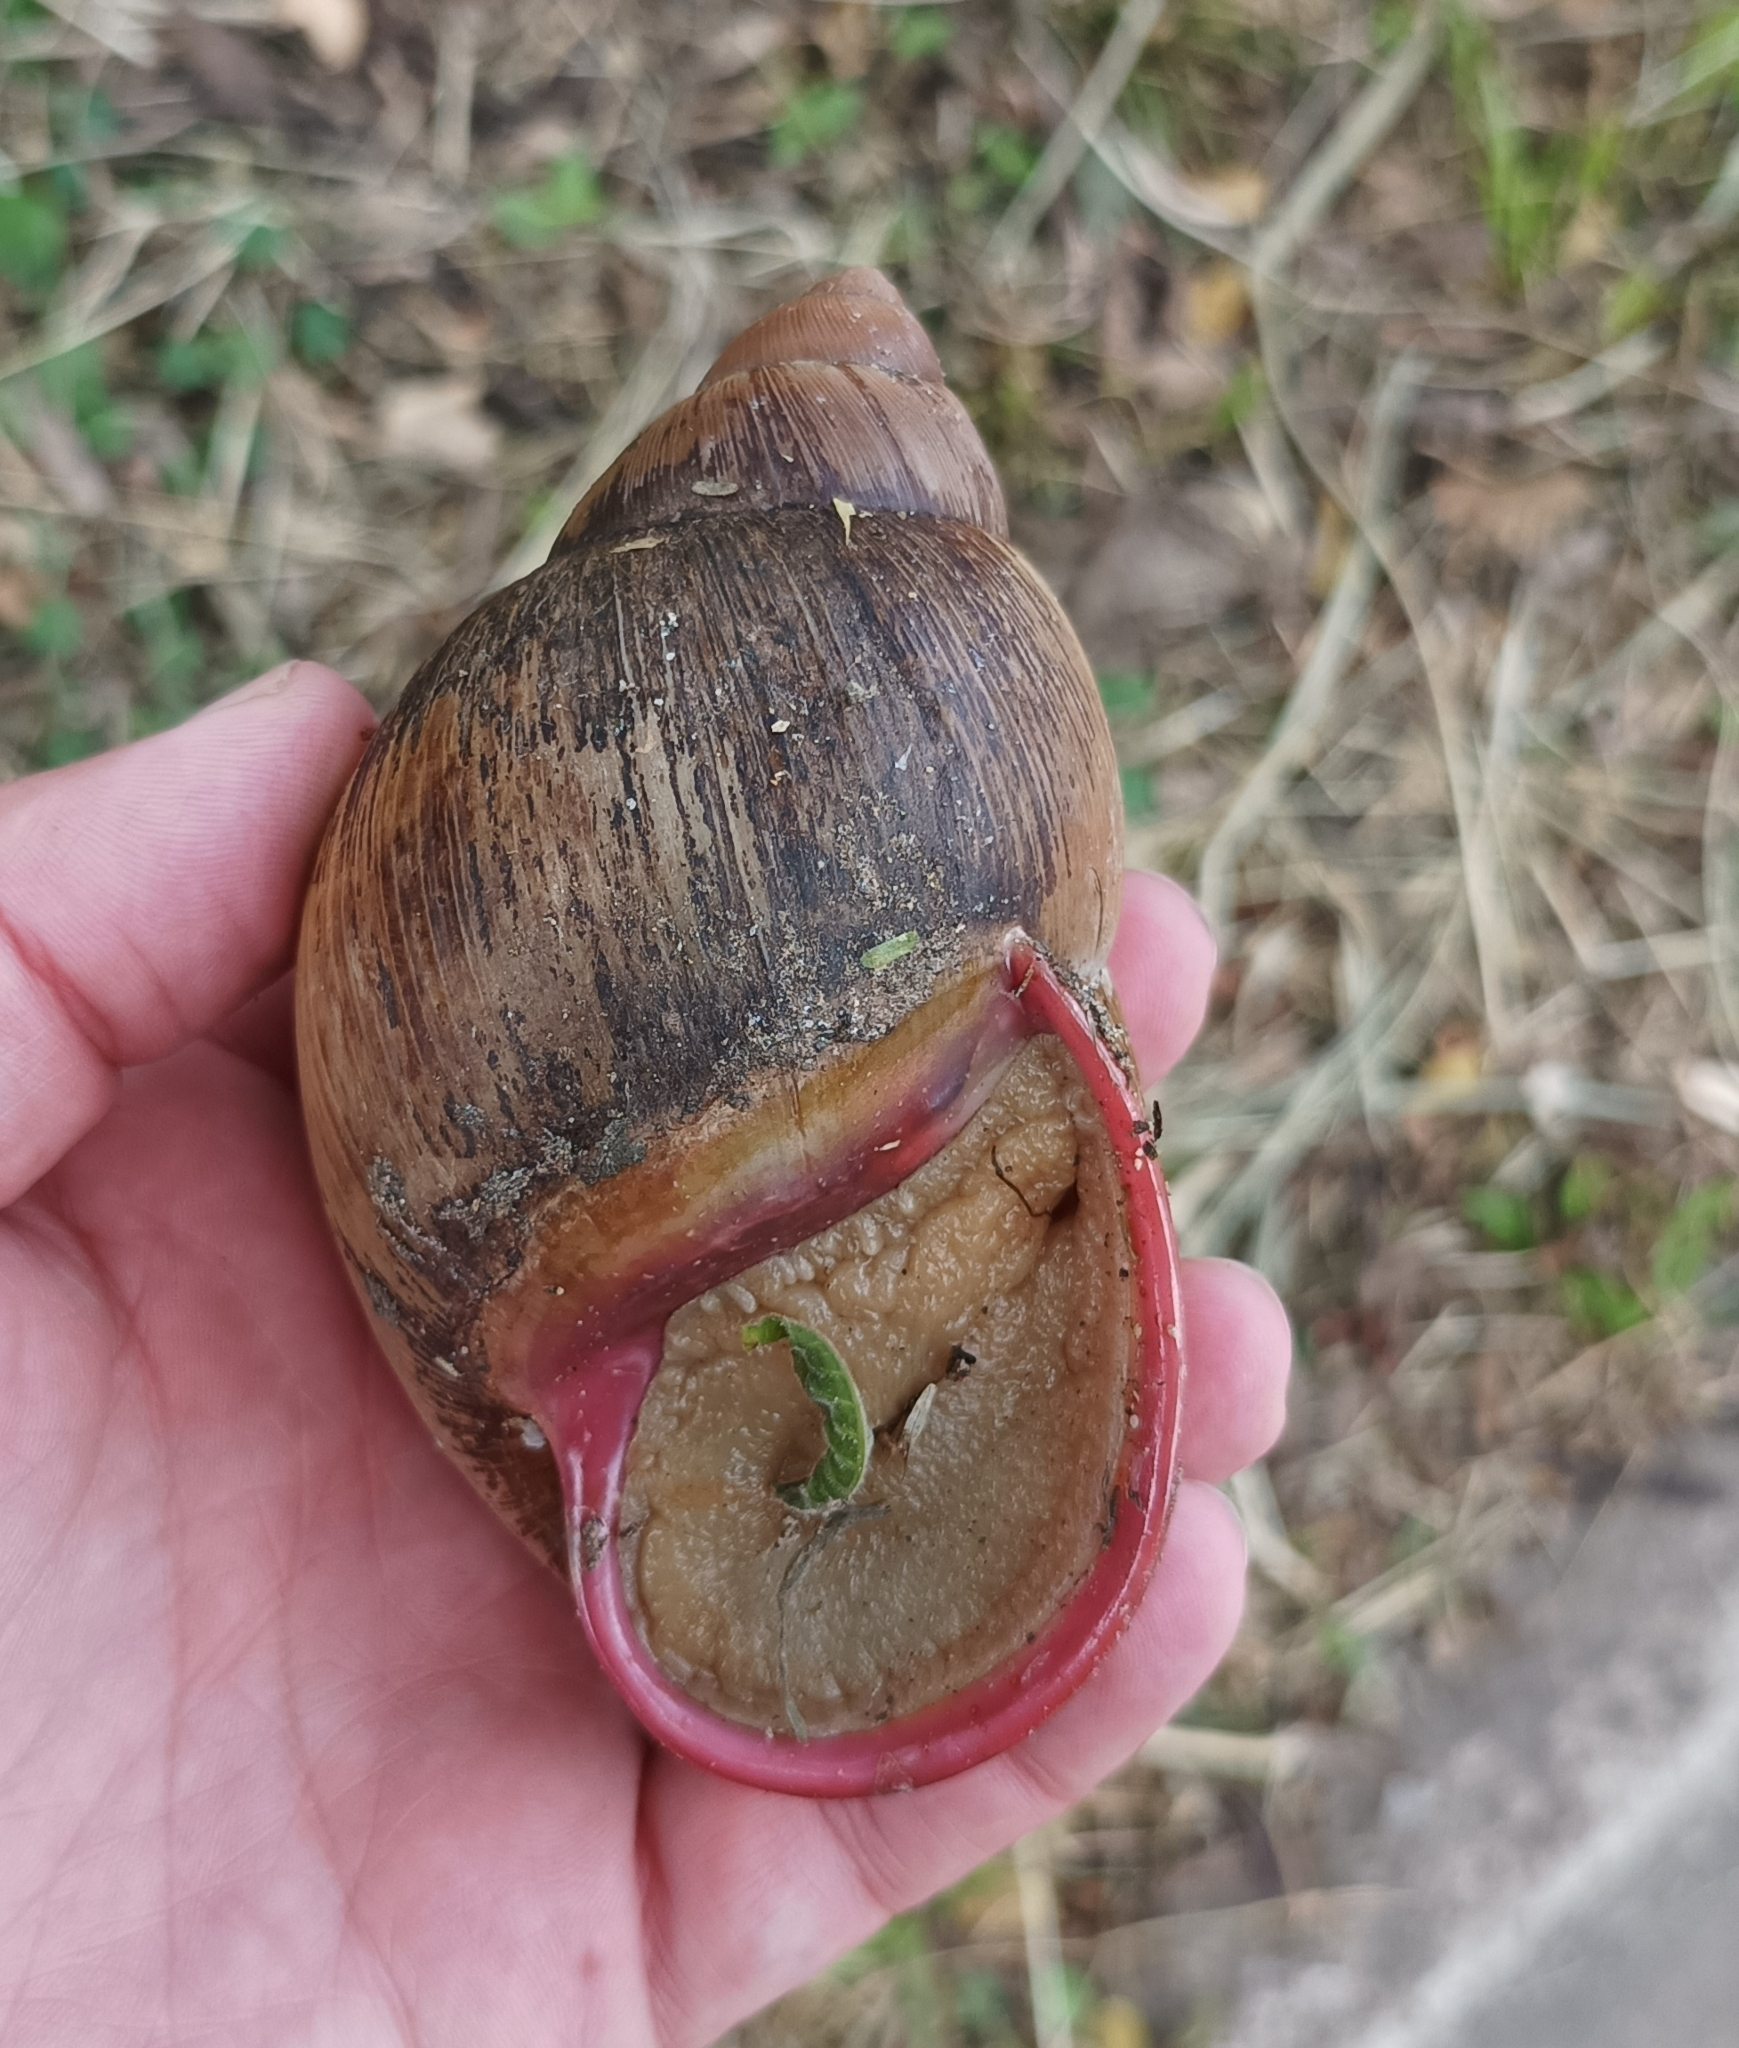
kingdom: Animalia
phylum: Mollusca
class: Gastropoda
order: Stylommatophora
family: Strophocheilidae
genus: Megalobulimus
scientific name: Megalobulimus oblongus
